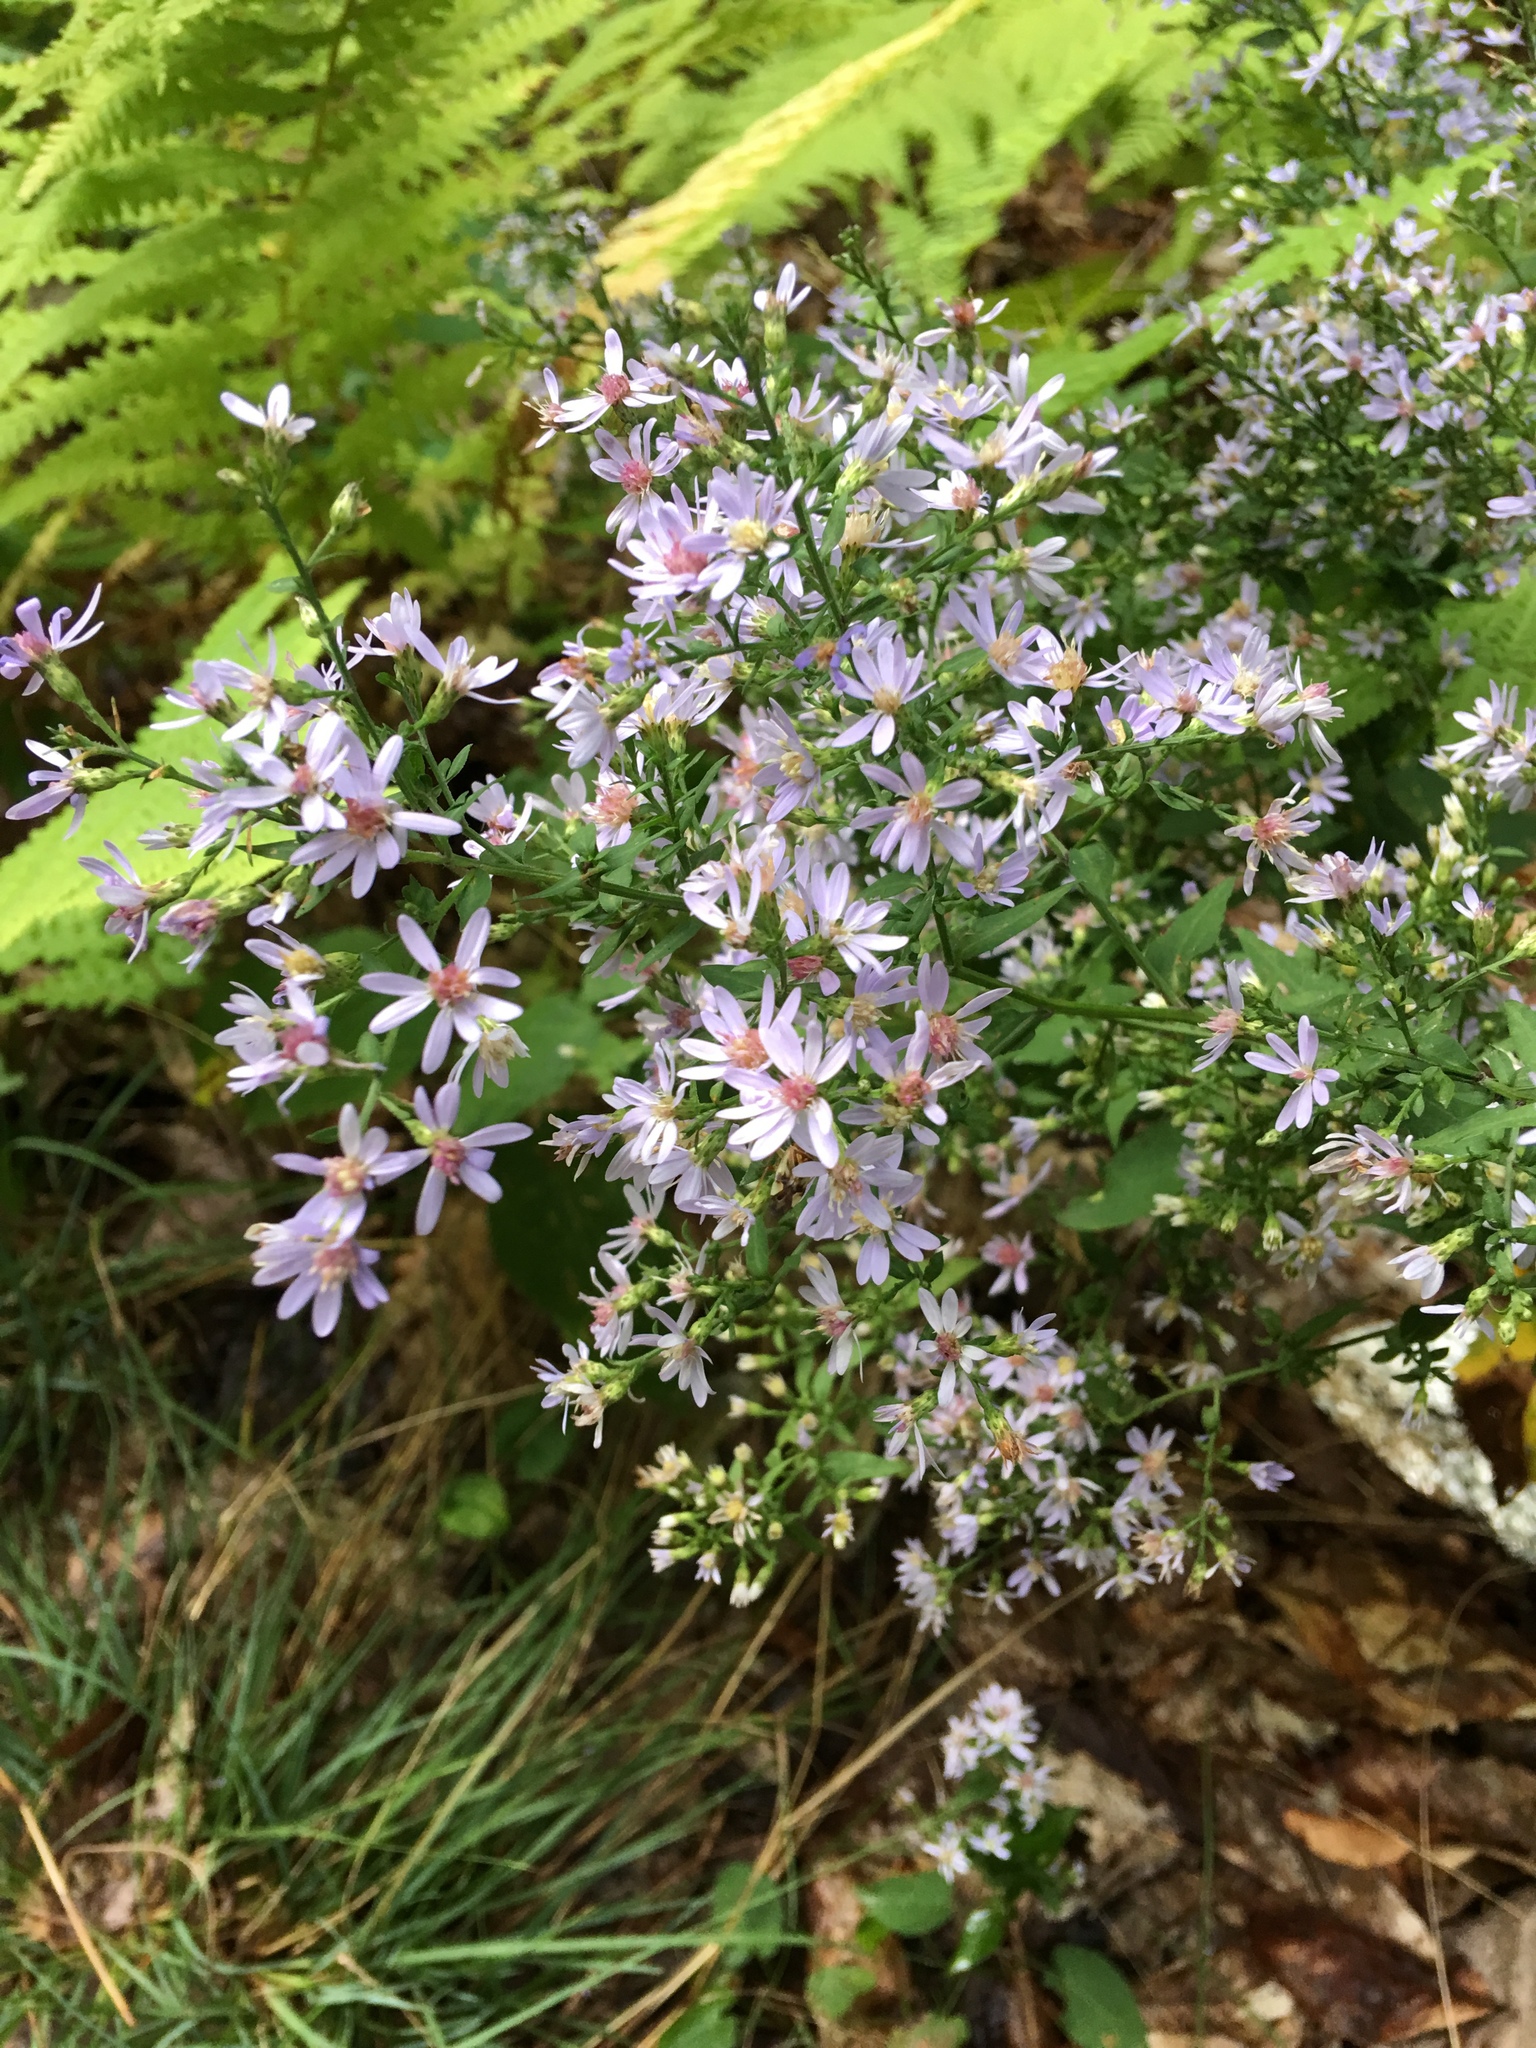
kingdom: Plantae
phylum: Tracheophyta
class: Magnoliopsida
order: Asterales
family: Asteraceae
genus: Symphyotrichum
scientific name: Symphyotrichum cordifolium
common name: Beeweed
